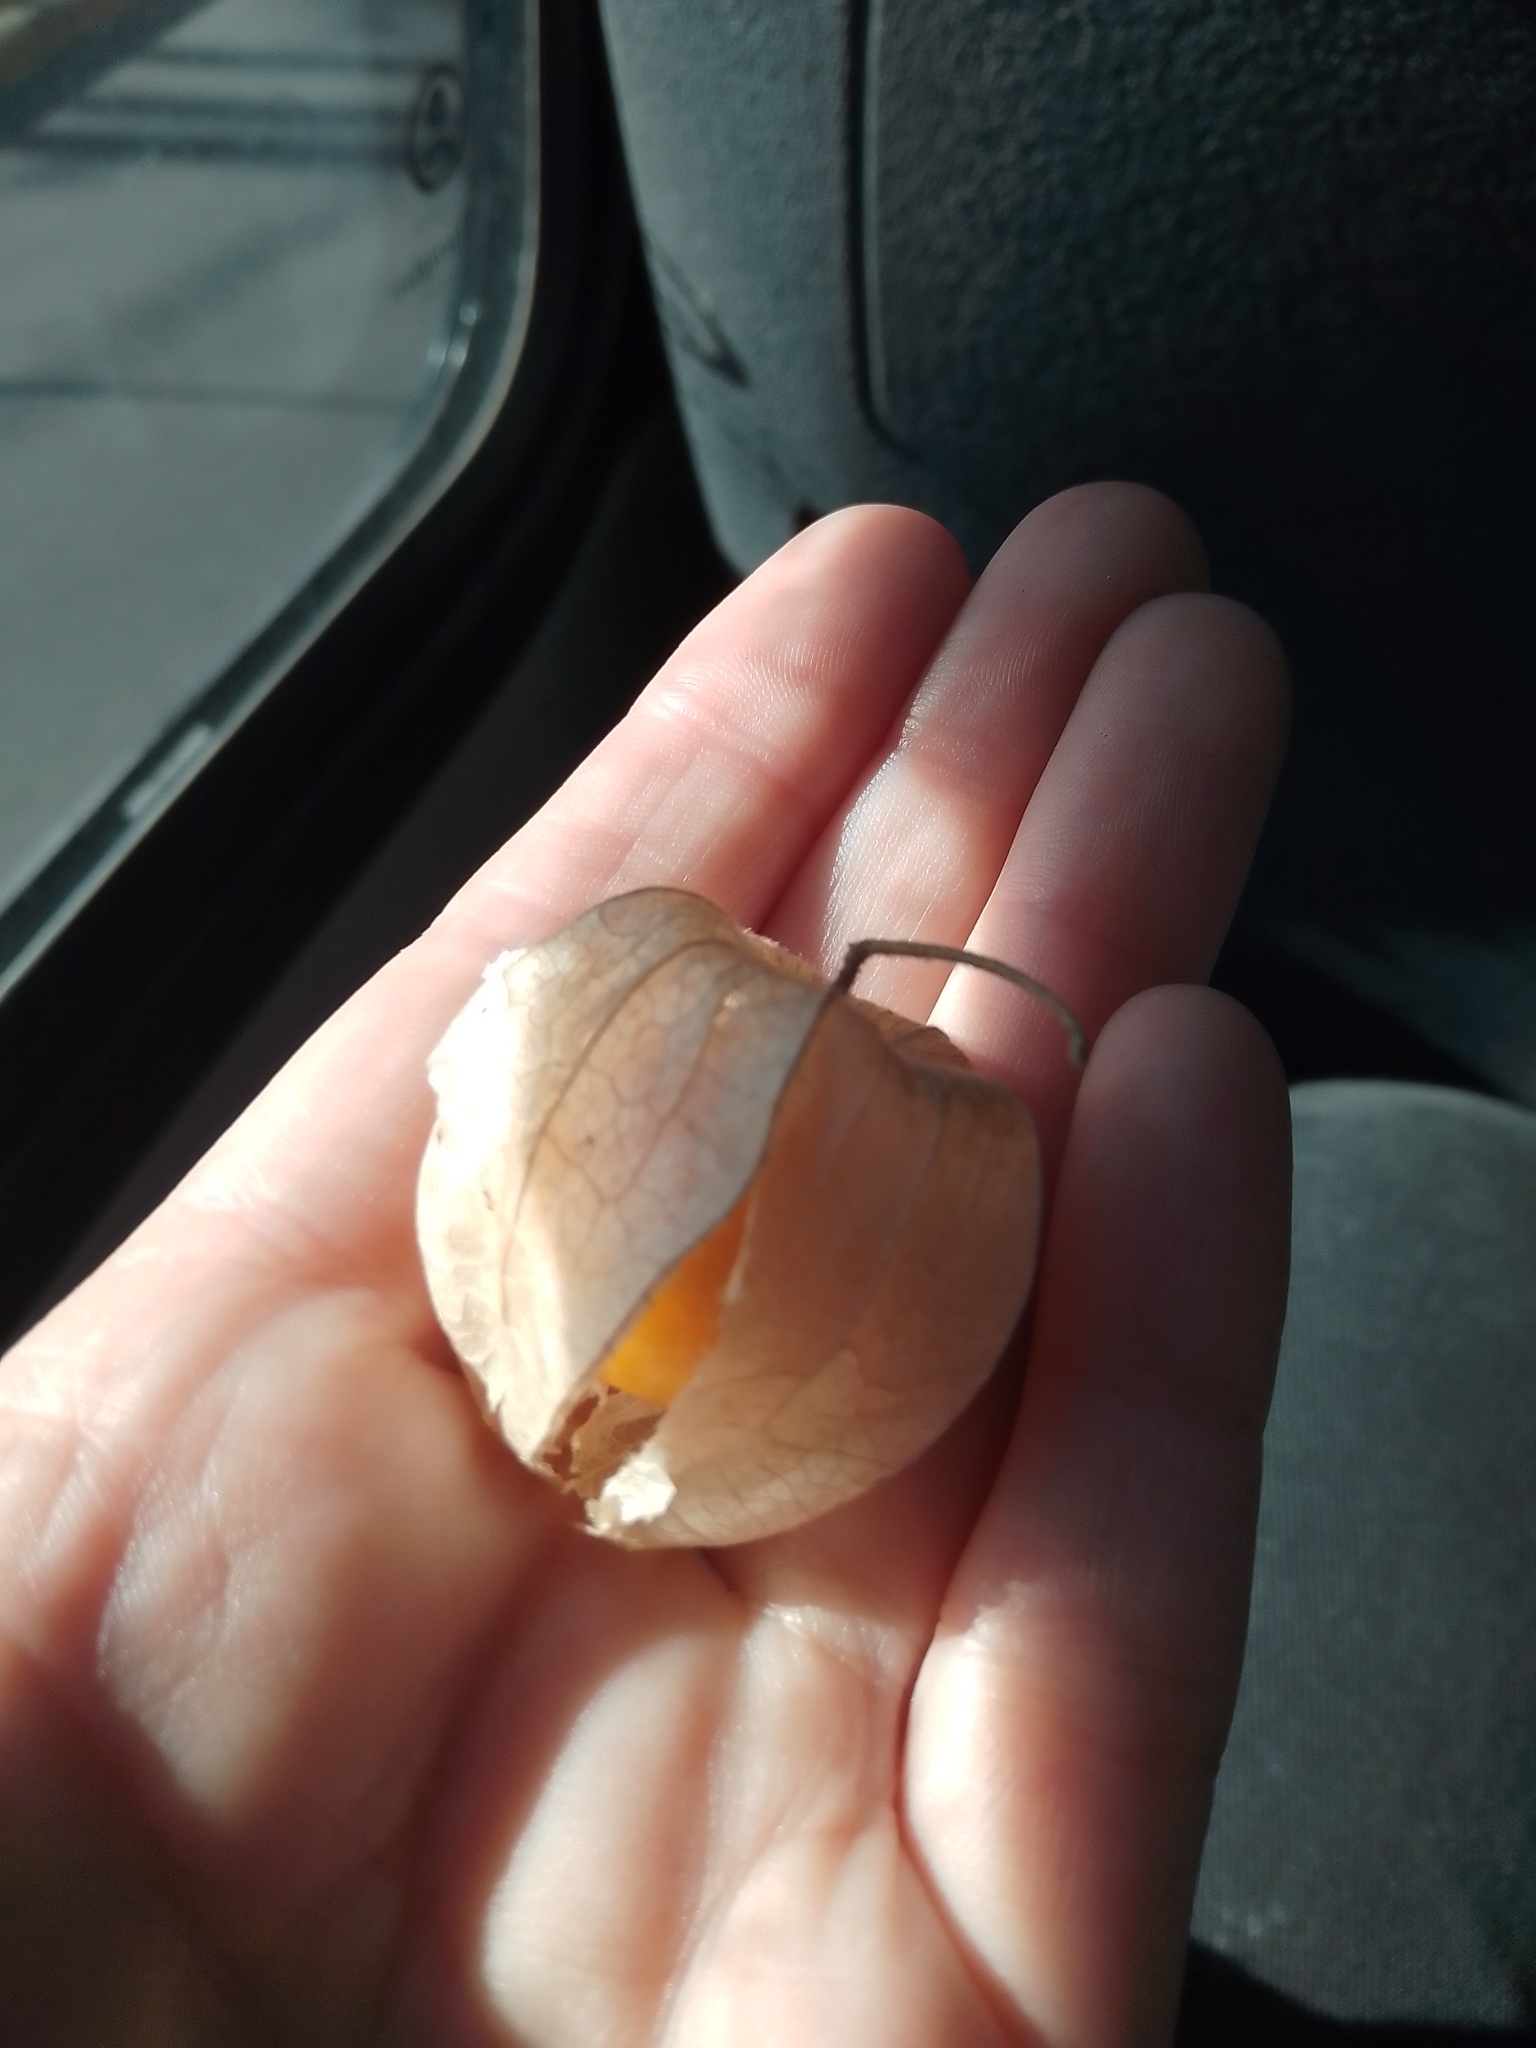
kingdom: Plantae
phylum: Tracheophyta
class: Magnoliopsida
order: Solanales
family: Solanaceae
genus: Physalis
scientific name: Physalis peruviana
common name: Cape-gooseberry
